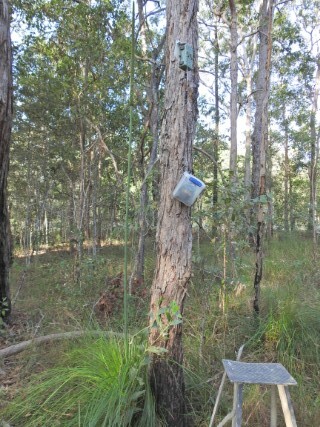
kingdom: Animalia
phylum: Chordata
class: Aves
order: Passeriformes
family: Meliphagidae
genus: Caligavis
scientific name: Caligavis chrysops
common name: Yellow-faced honeyeater
